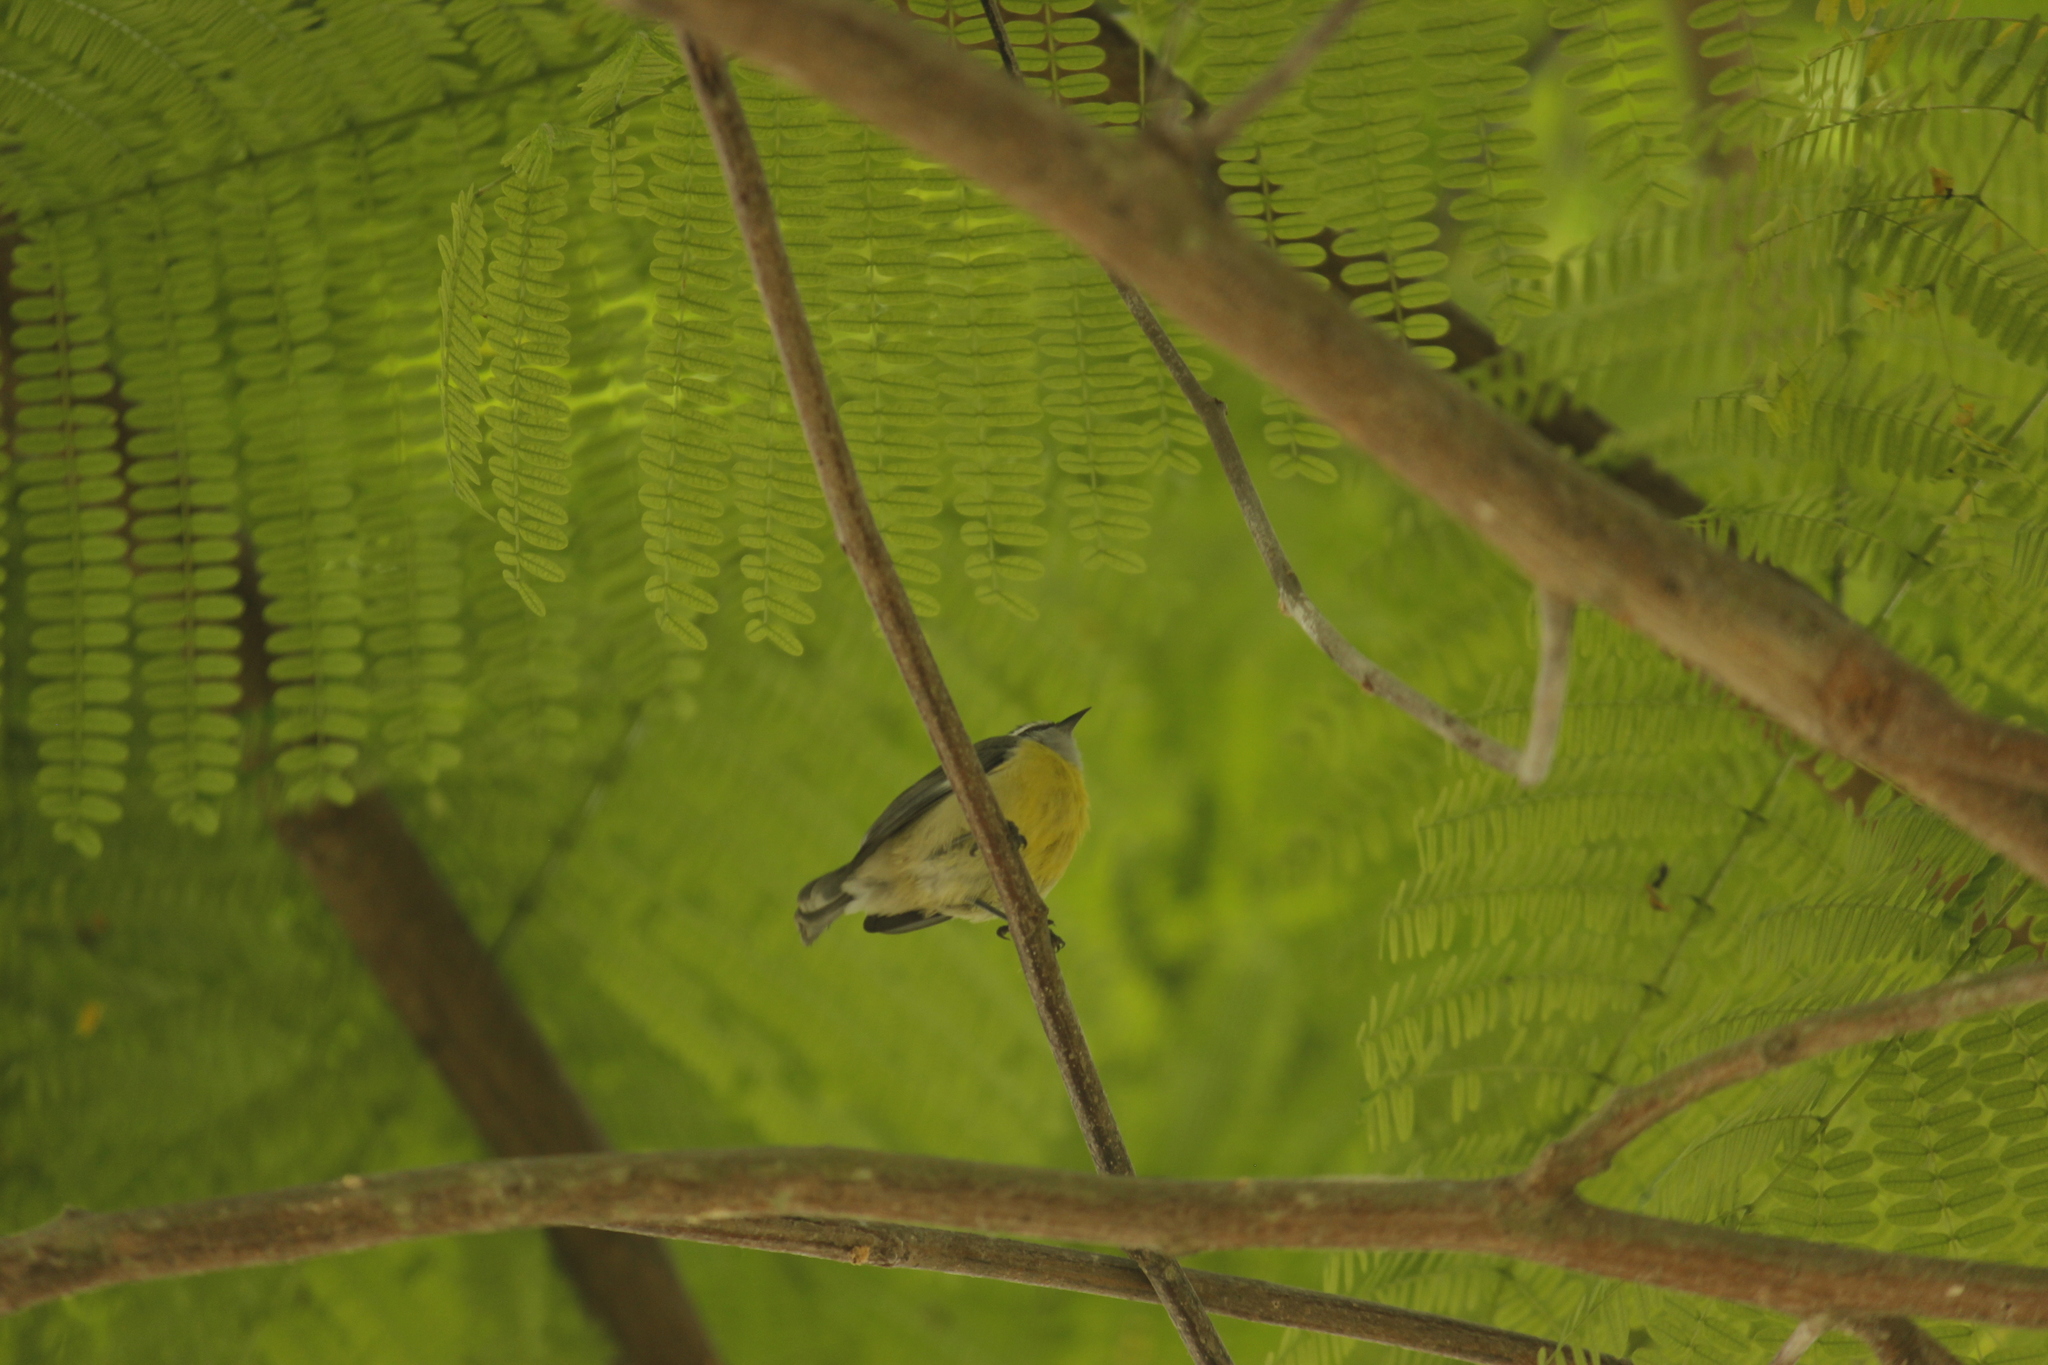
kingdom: Animalia
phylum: Chordata
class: Aves
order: Passeriformes
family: Thraupidae
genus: Coereba
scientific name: Coereba flaveola
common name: Bananaquit
